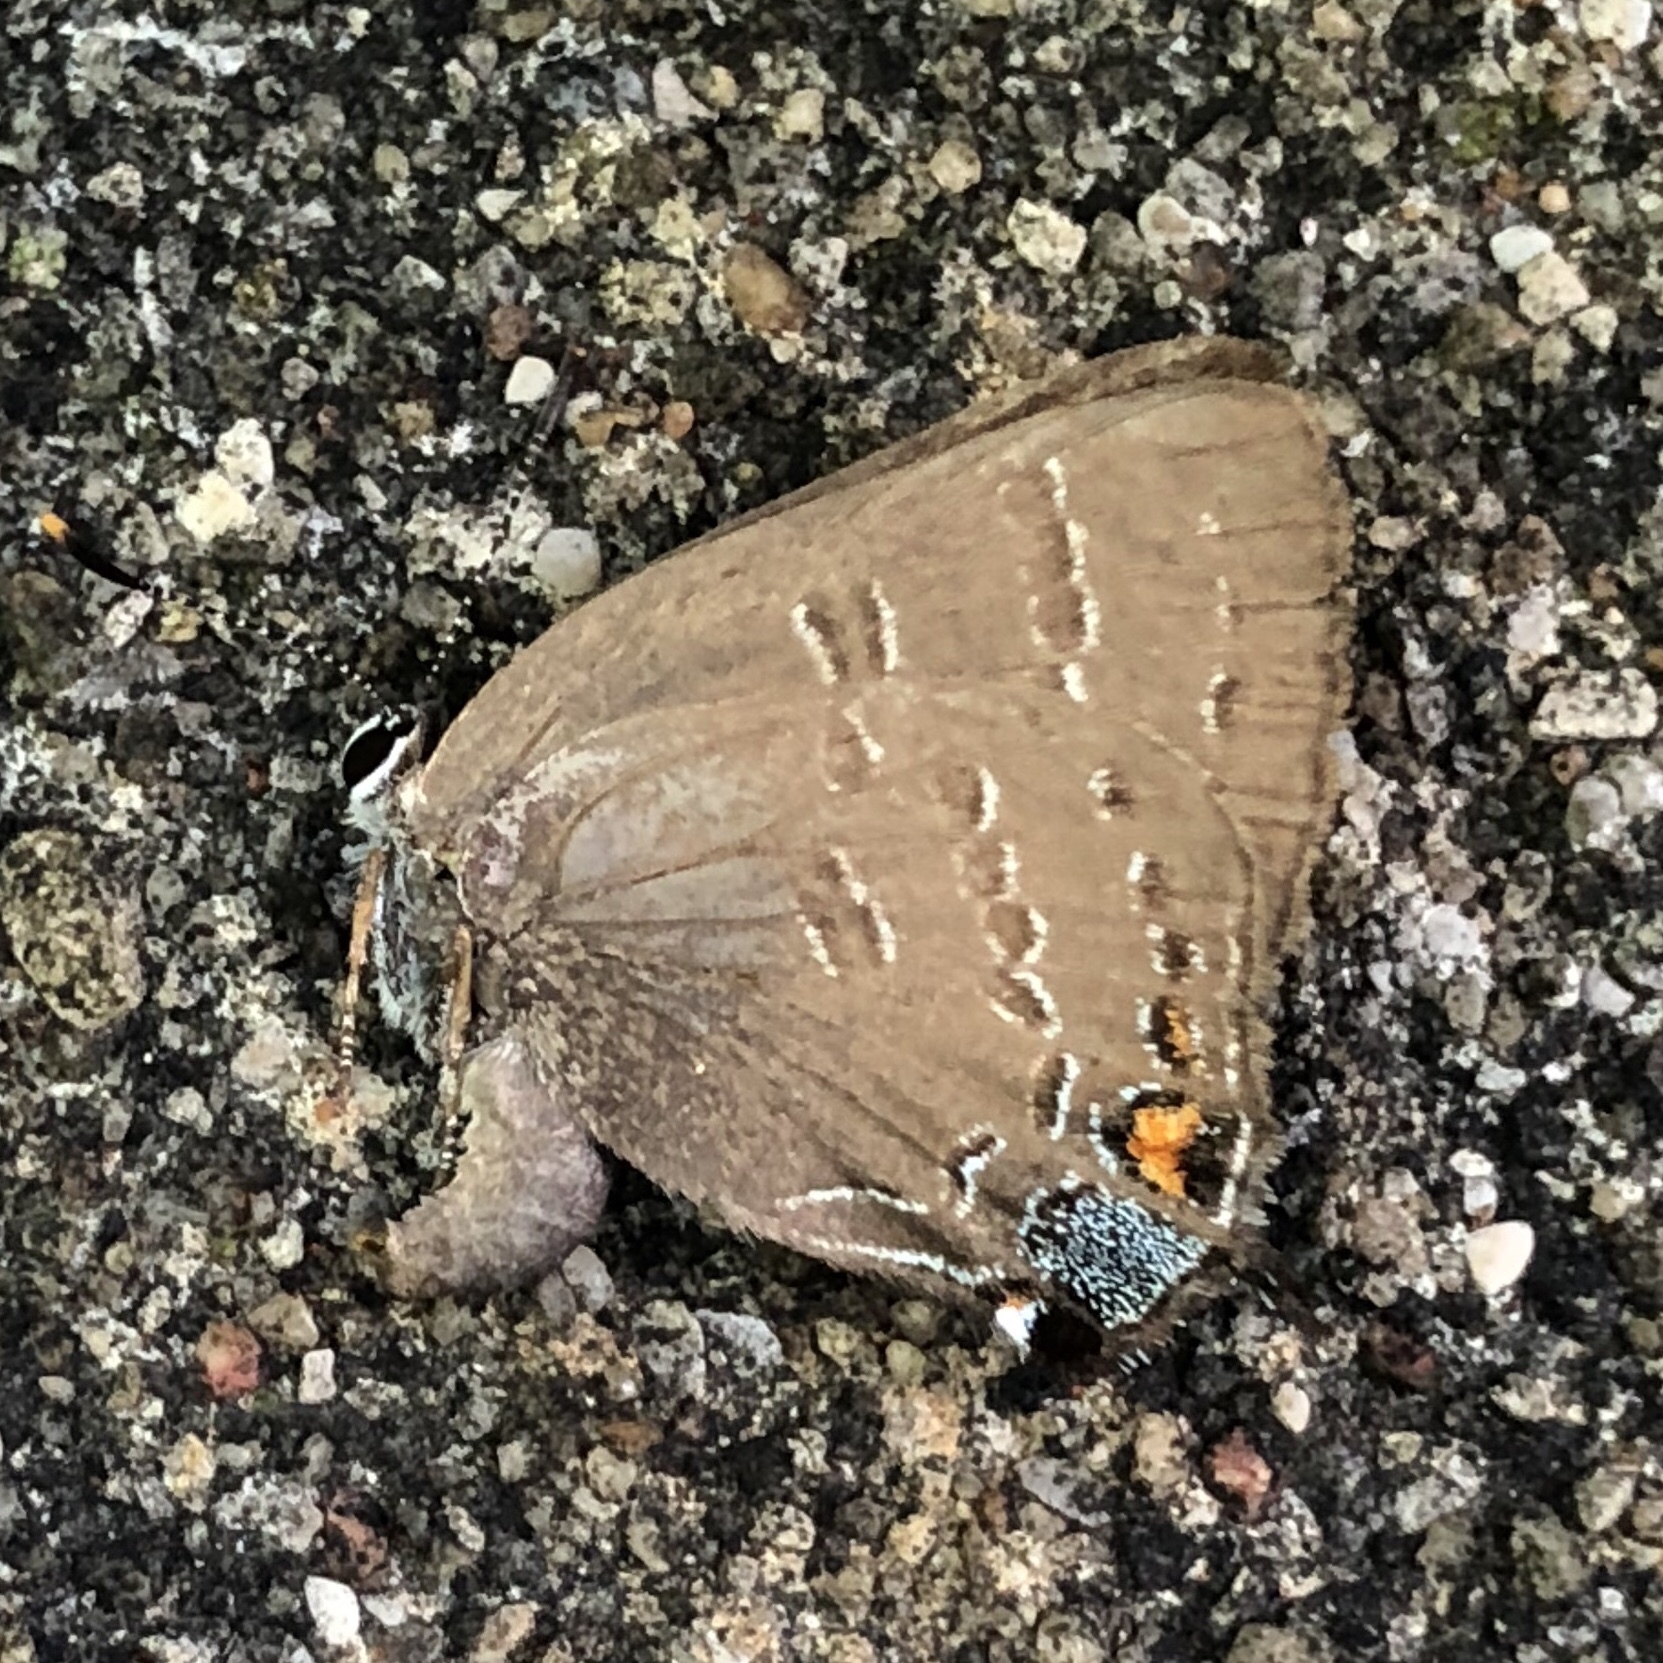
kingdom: Animalia
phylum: Arthropoda
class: Insecta
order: Lepidoptera
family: Lycaenidae
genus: Satyrium
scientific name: Satyrium calanus
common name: Banded hairstreak
